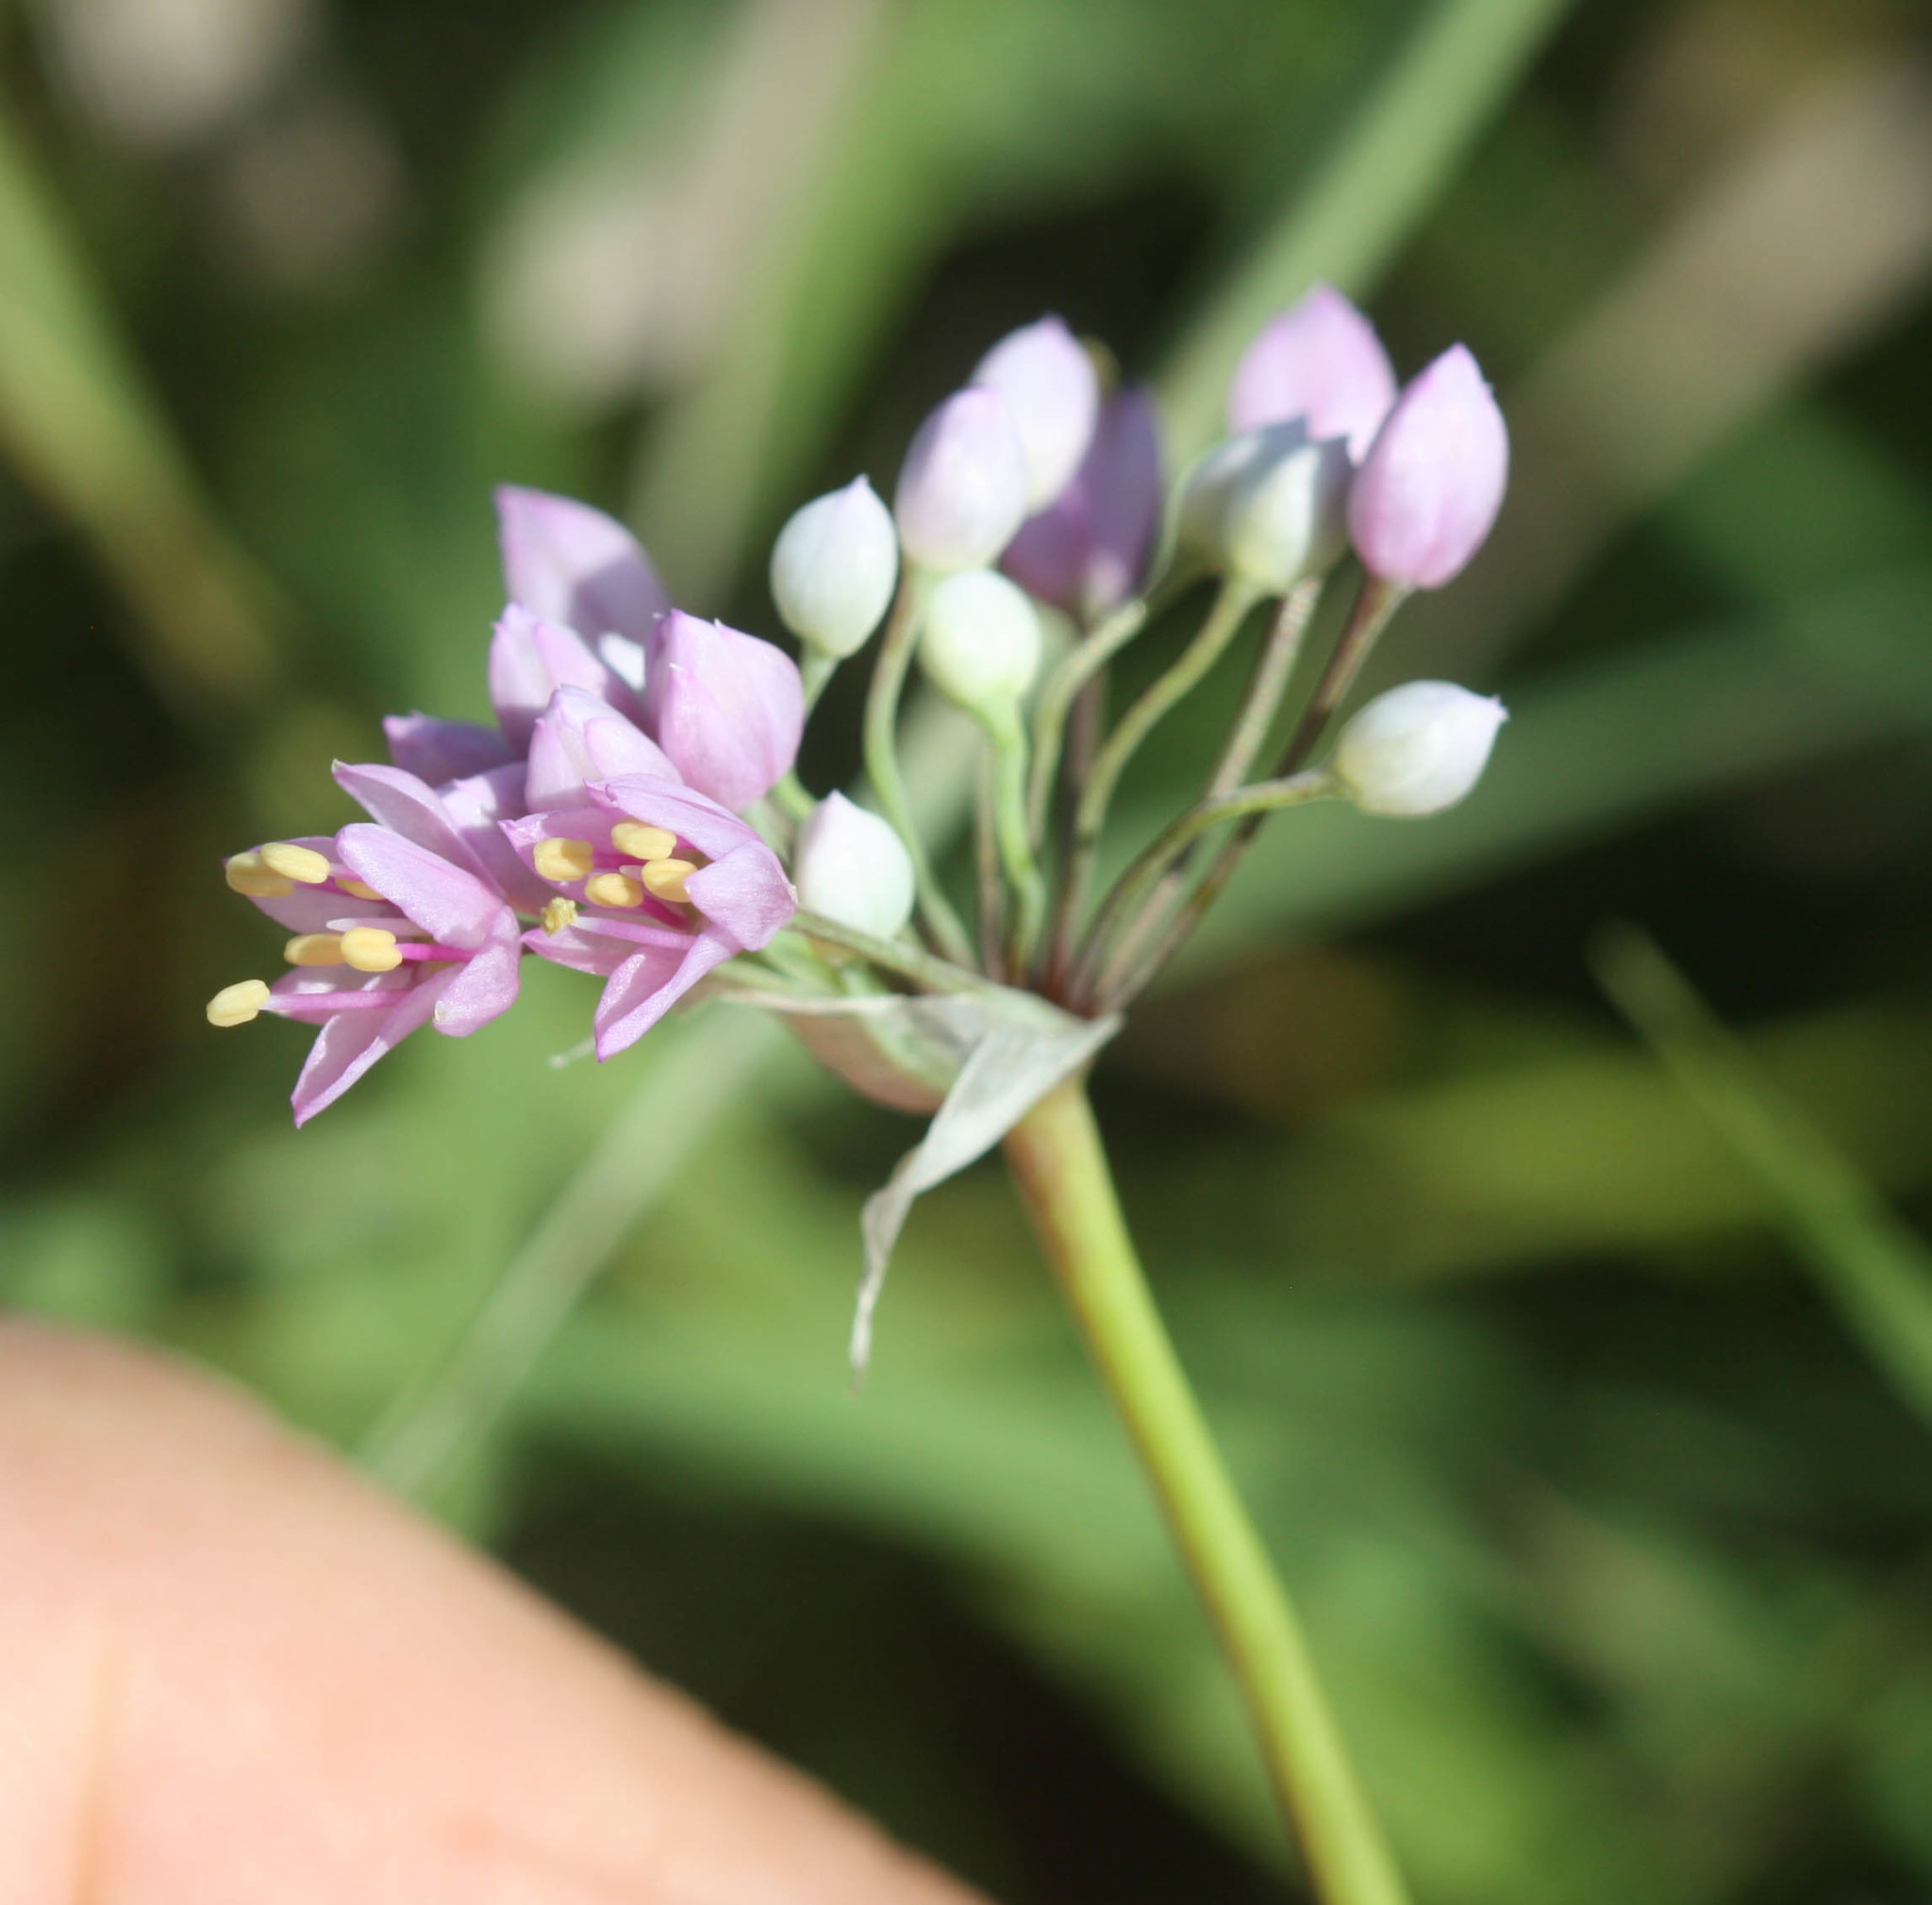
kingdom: Plantae
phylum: Tracheophyta
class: Liliopsida
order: Asparagales
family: Amaryllidaceae
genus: Allium
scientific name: Allium stellatum
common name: Autumn onion
